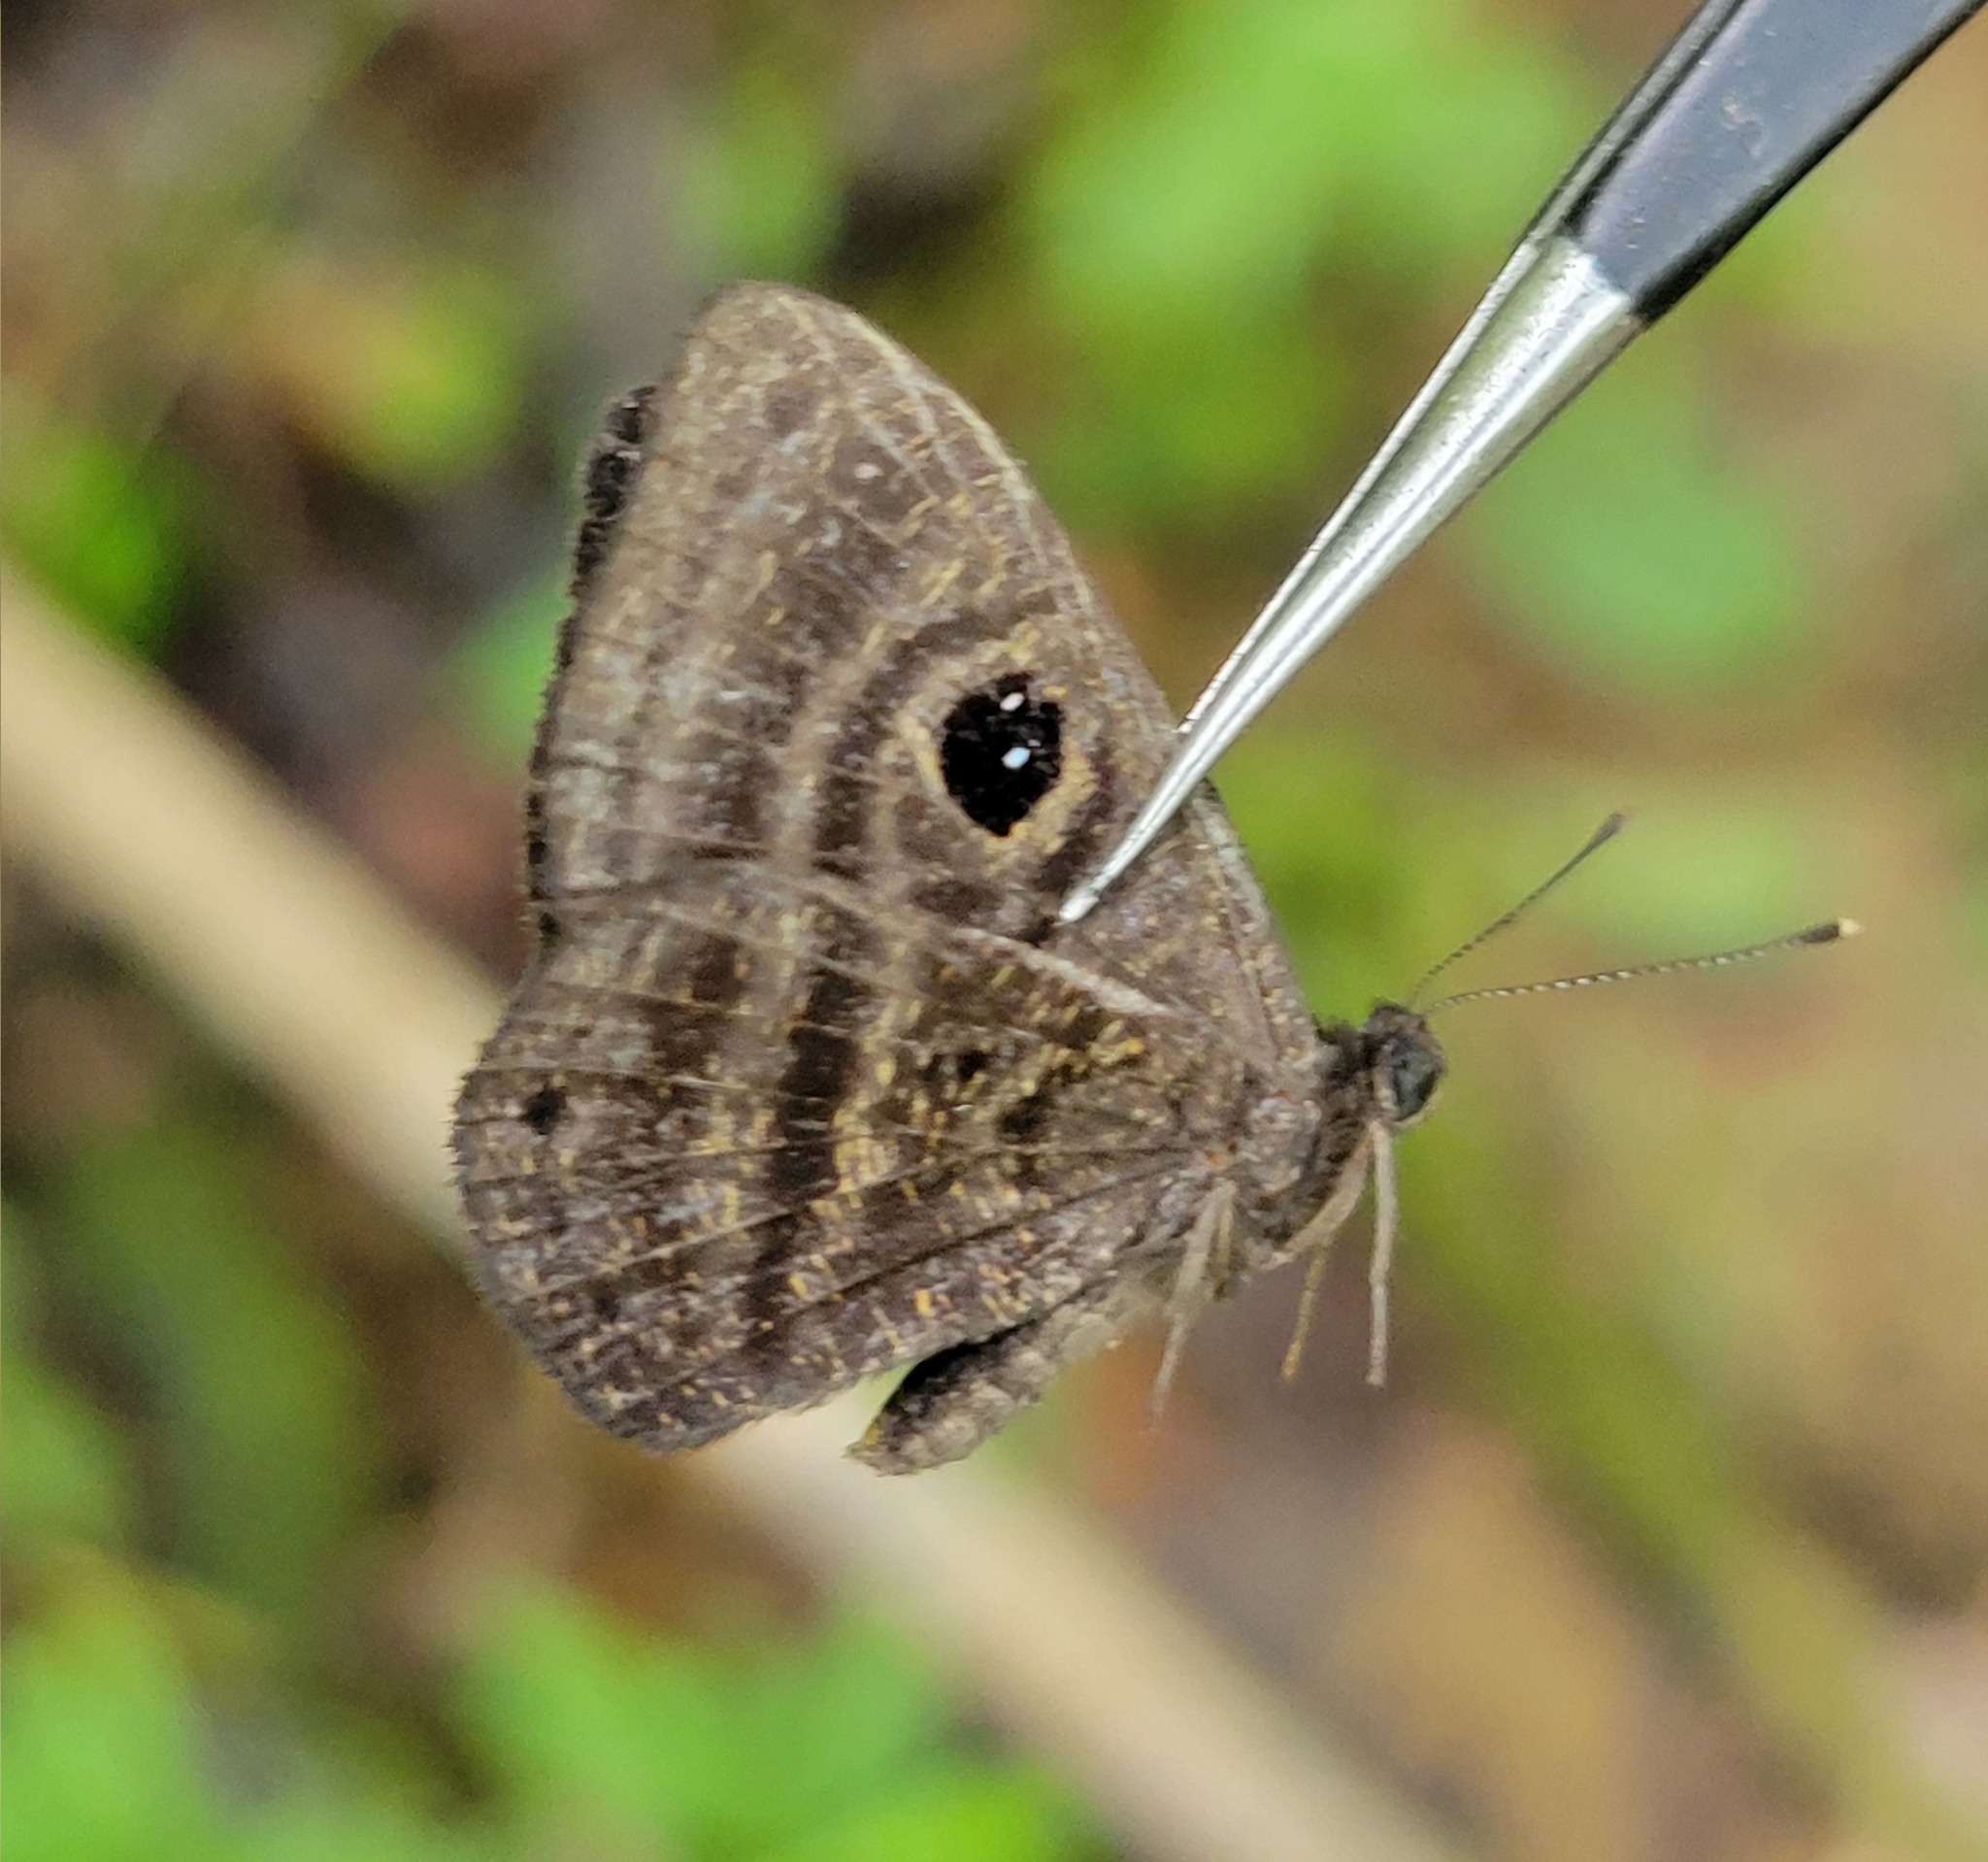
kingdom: Animalia
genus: Mesosemia
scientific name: Mesosemia menoetes
